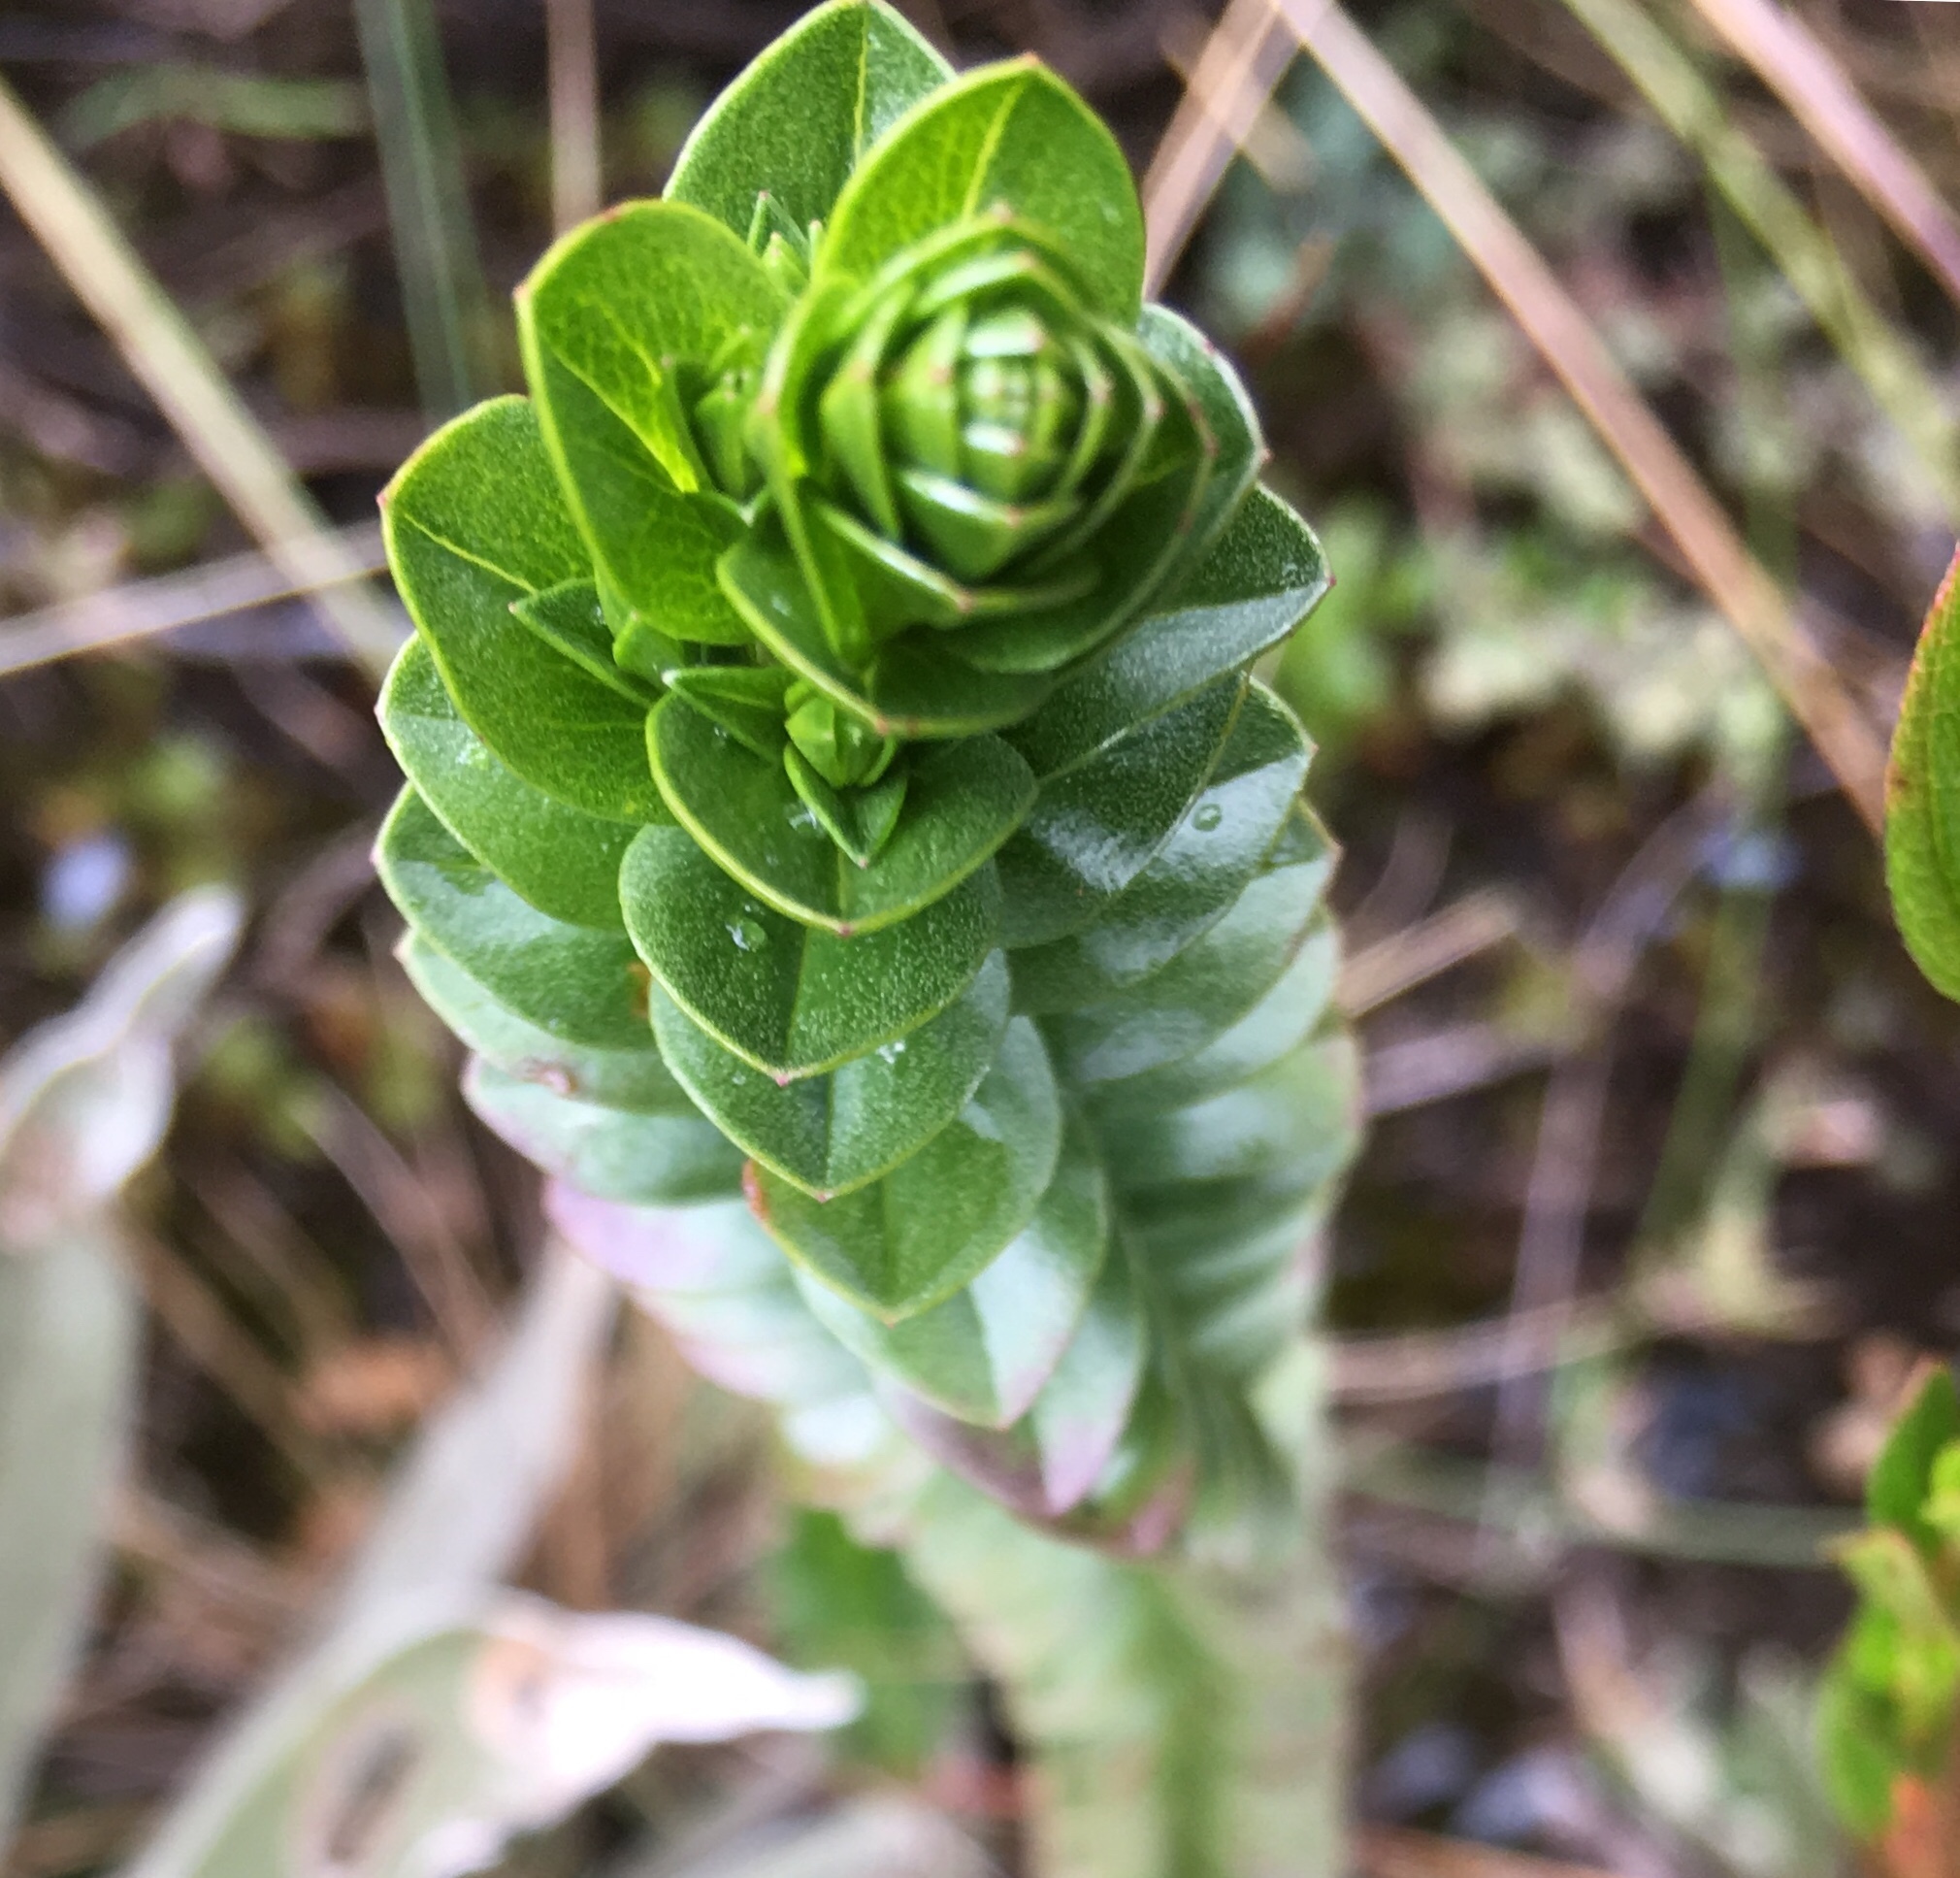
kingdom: Plantae
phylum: Tracheophyta
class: Magnoliopsida
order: Malpighiales
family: Hypericaceae
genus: Hypericum
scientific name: Hypericum mexicanum
